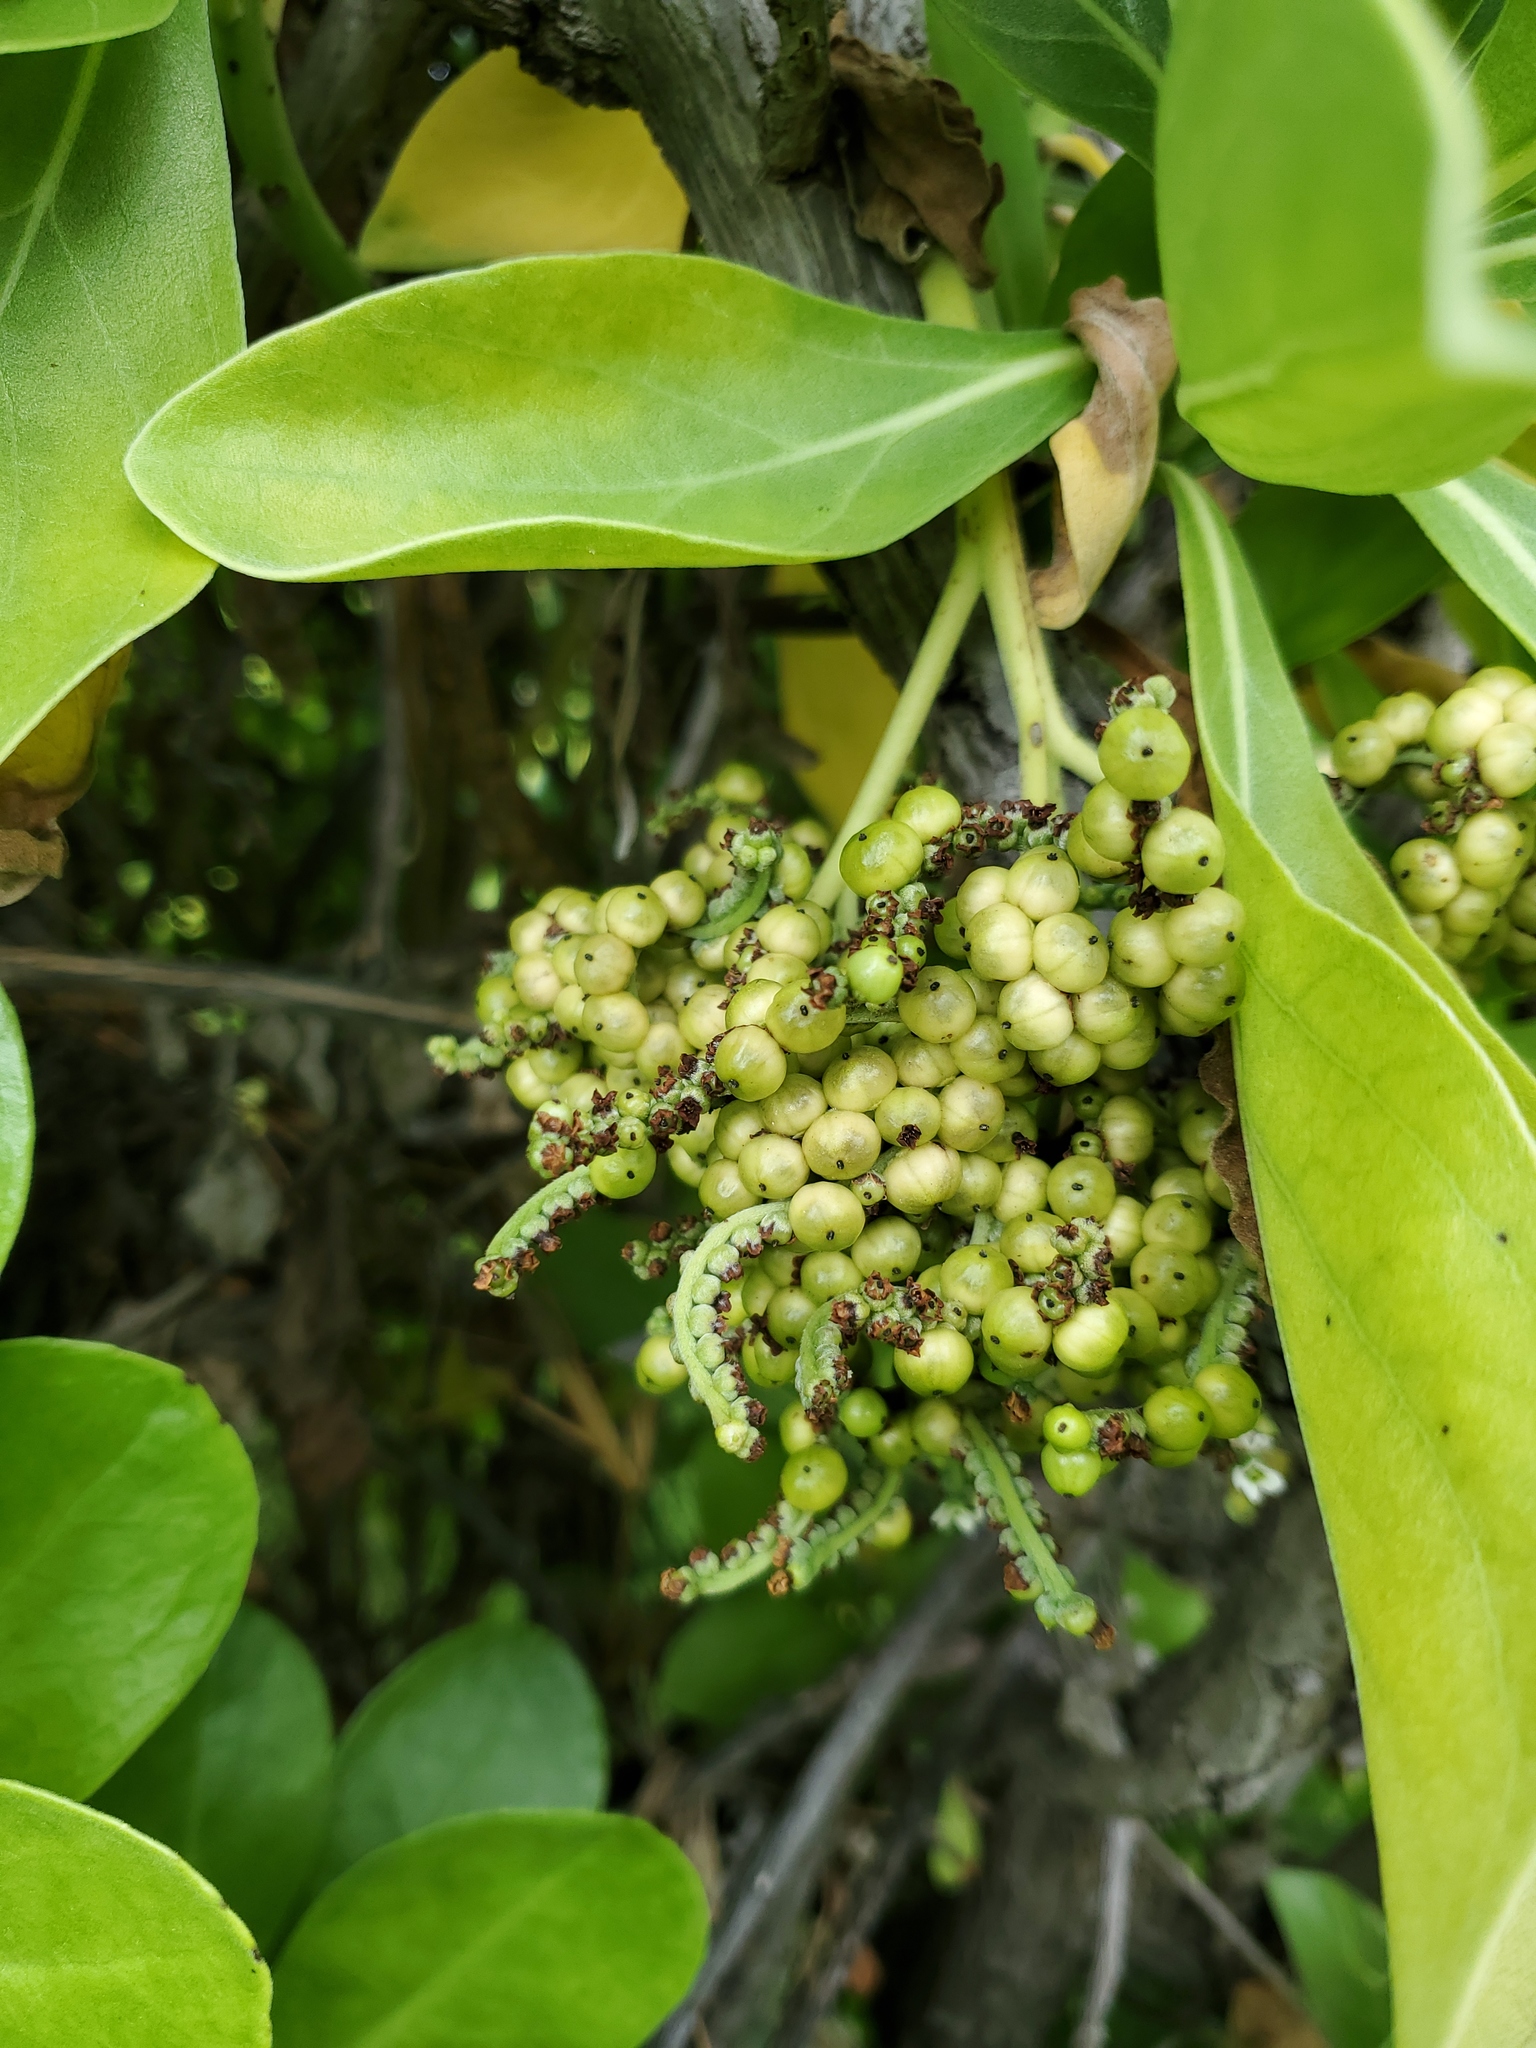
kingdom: Plantae
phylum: Tracheophyta
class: Magnoliopsida
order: Boraginales
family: Heliotropiaceae
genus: Heliotropium
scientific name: Heliotropium velutinum
